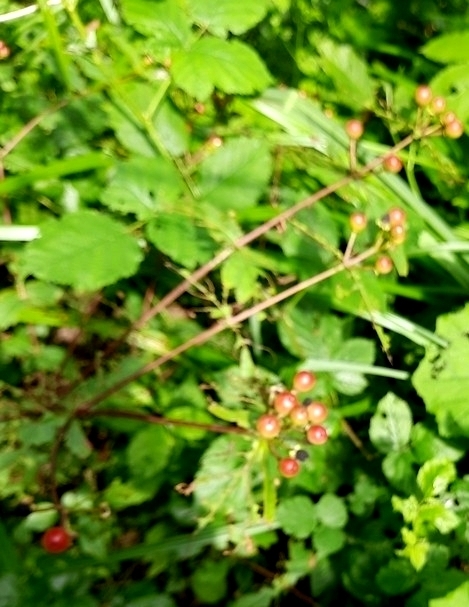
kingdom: Plantae
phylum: Tracheophyta
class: Magnoliopsida
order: Malpighiales
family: Hypericaceae
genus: Hypericum
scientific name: Hypericum androsaemum
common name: Sweet-amber
